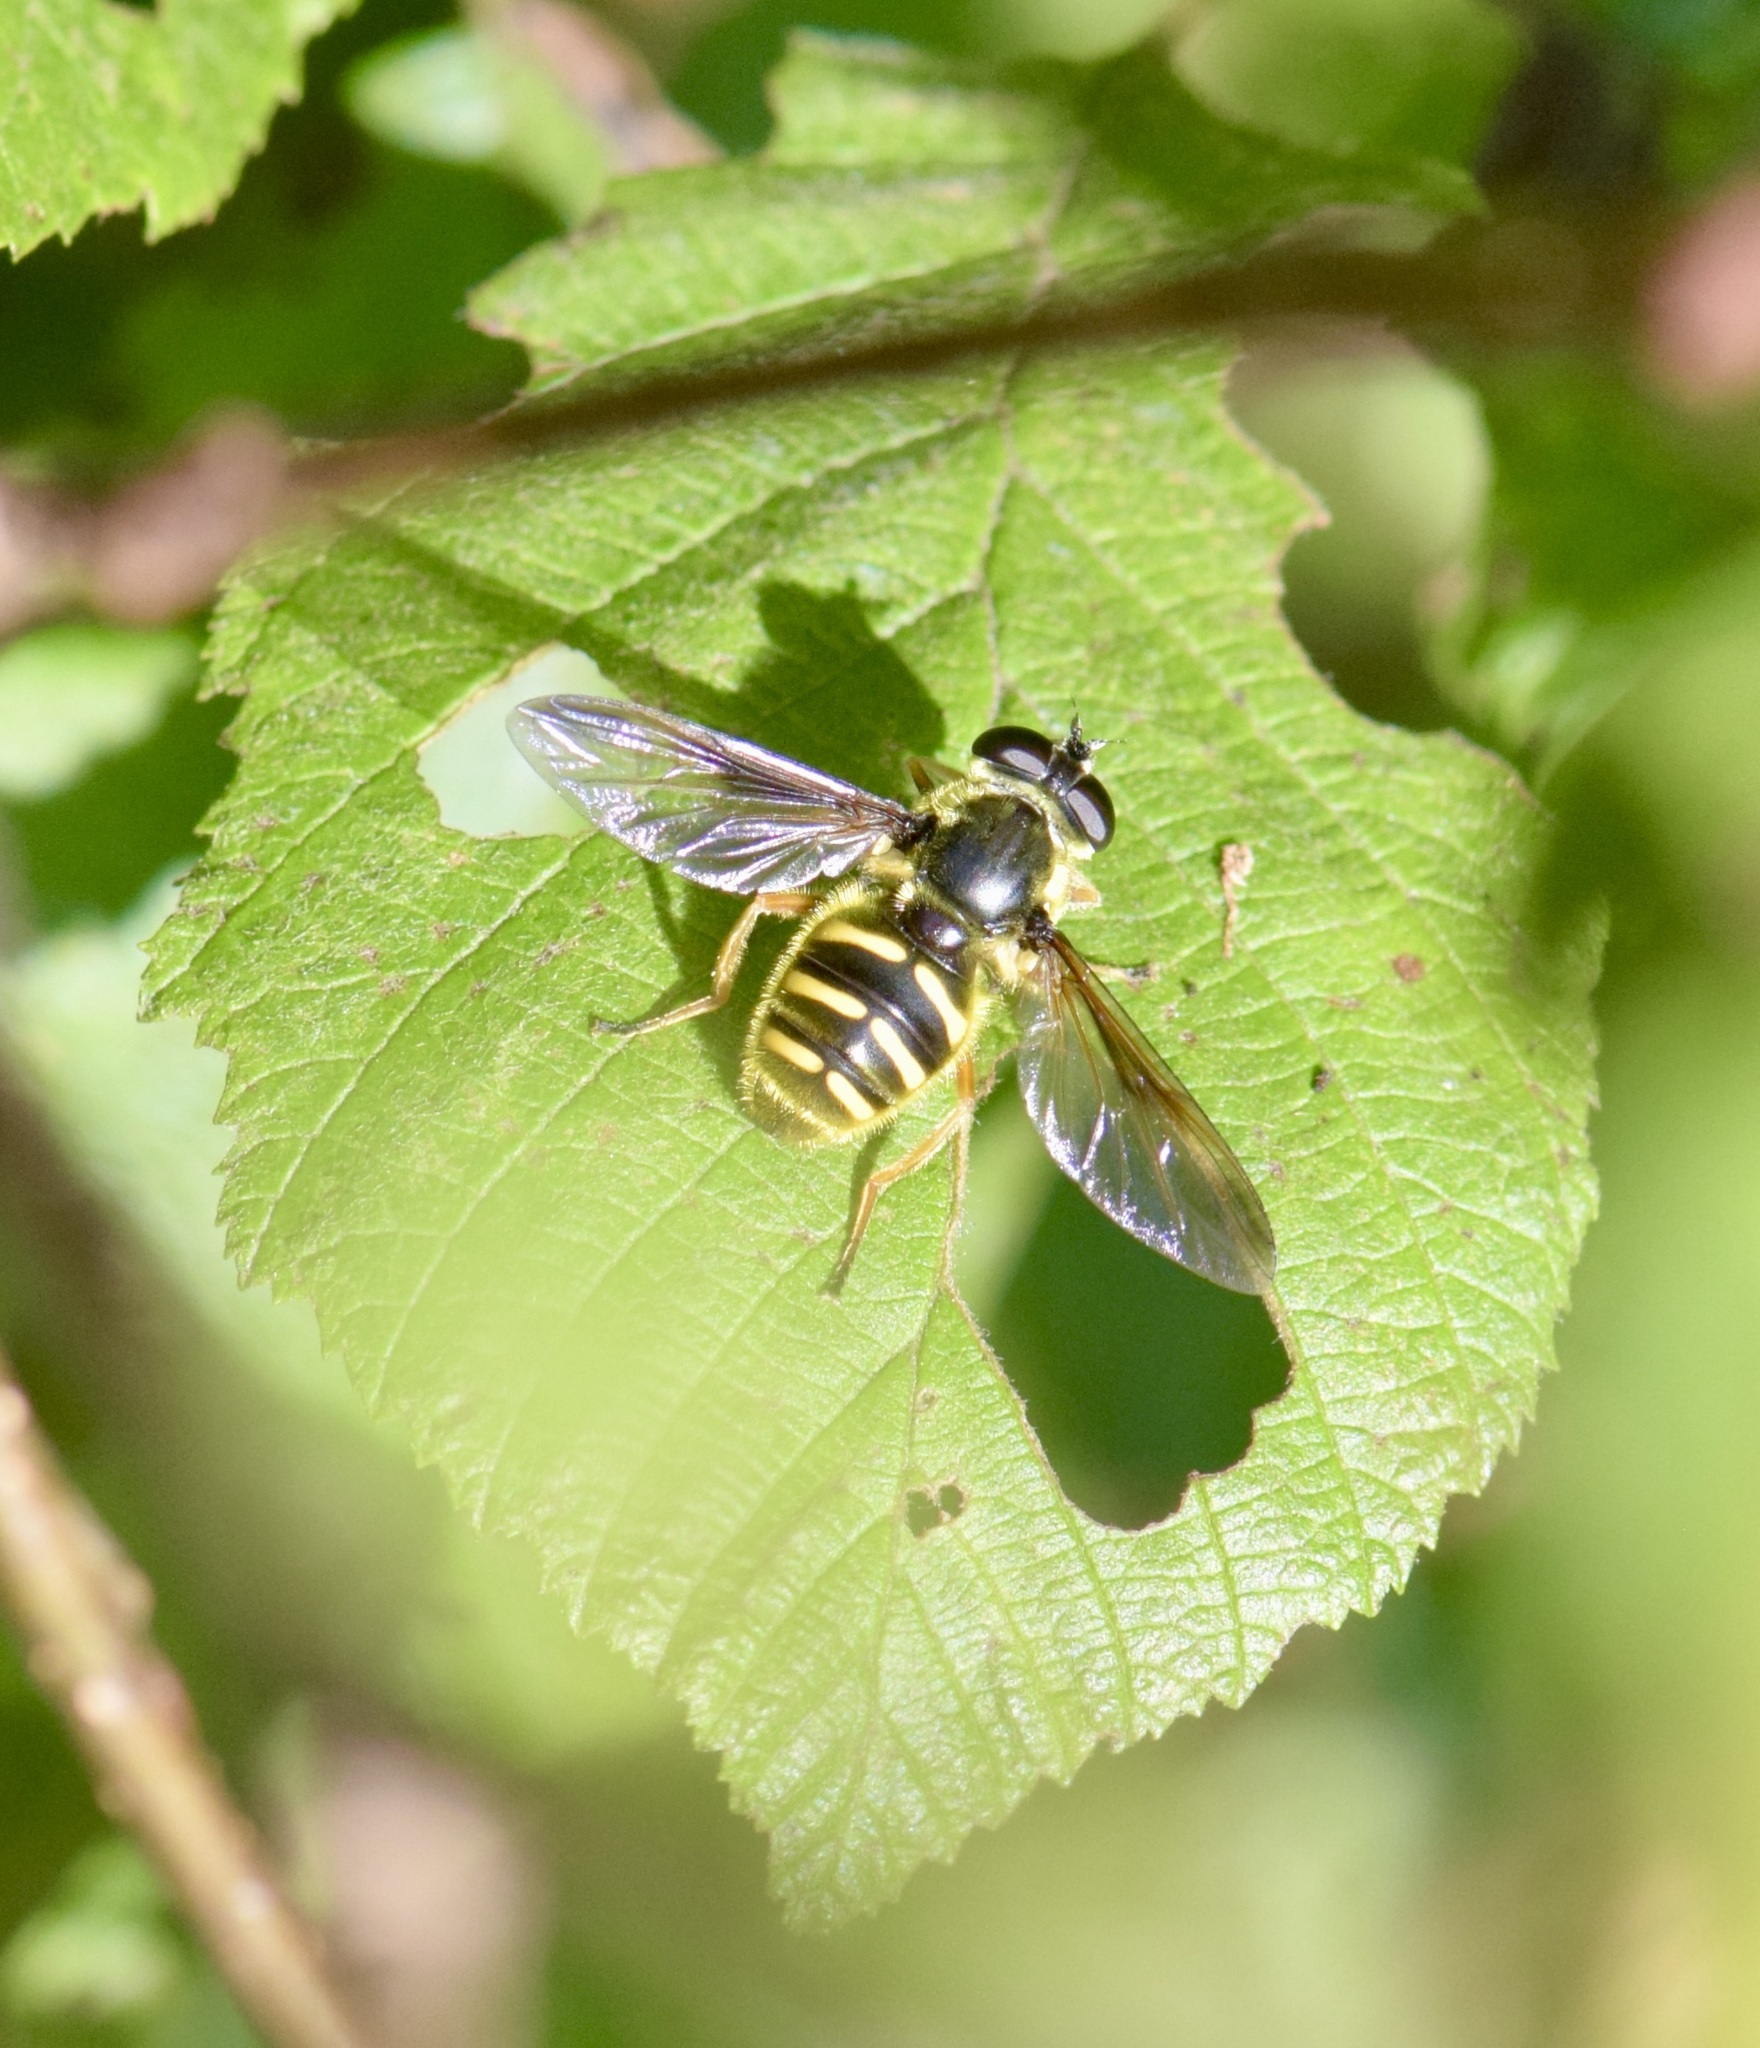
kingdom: Animalia
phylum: Arthropoda
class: Insecta
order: Diptera
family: Syrphidae
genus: Sericomyia
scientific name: Sericomyia chrysotoxoides
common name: Oblique-banded pond fly
